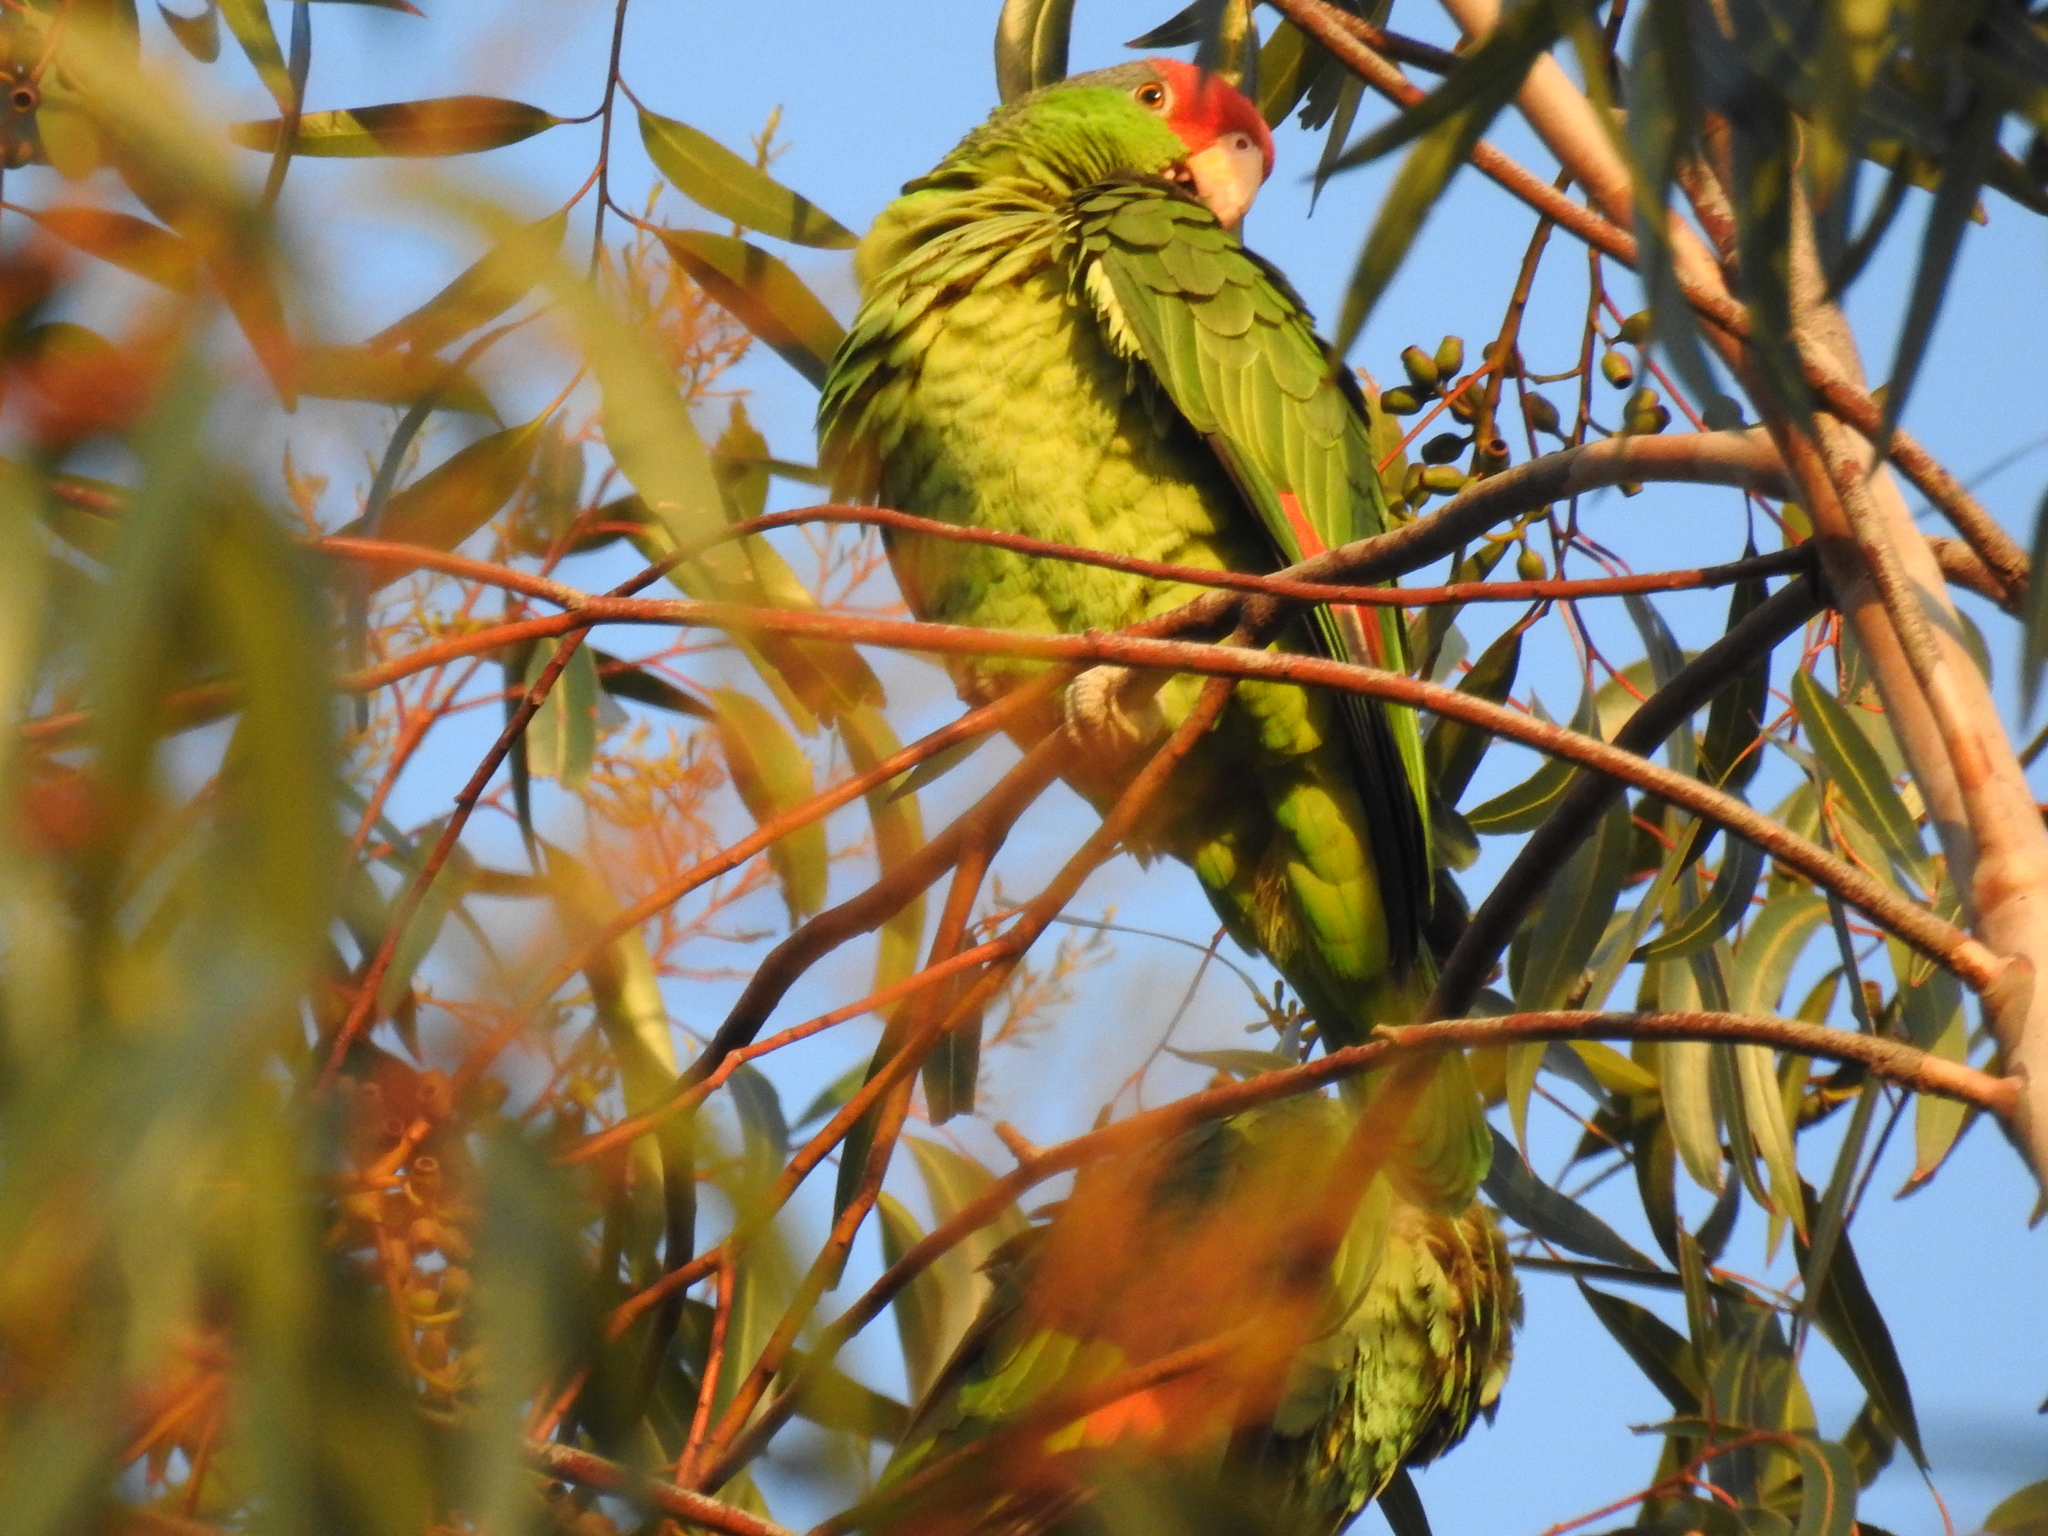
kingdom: Animalia
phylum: Chordata
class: Aves
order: Psittaciformes
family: Psittacidae
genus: Amazona
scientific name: Amazona viridigenalis
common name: Red-crowned amazon
